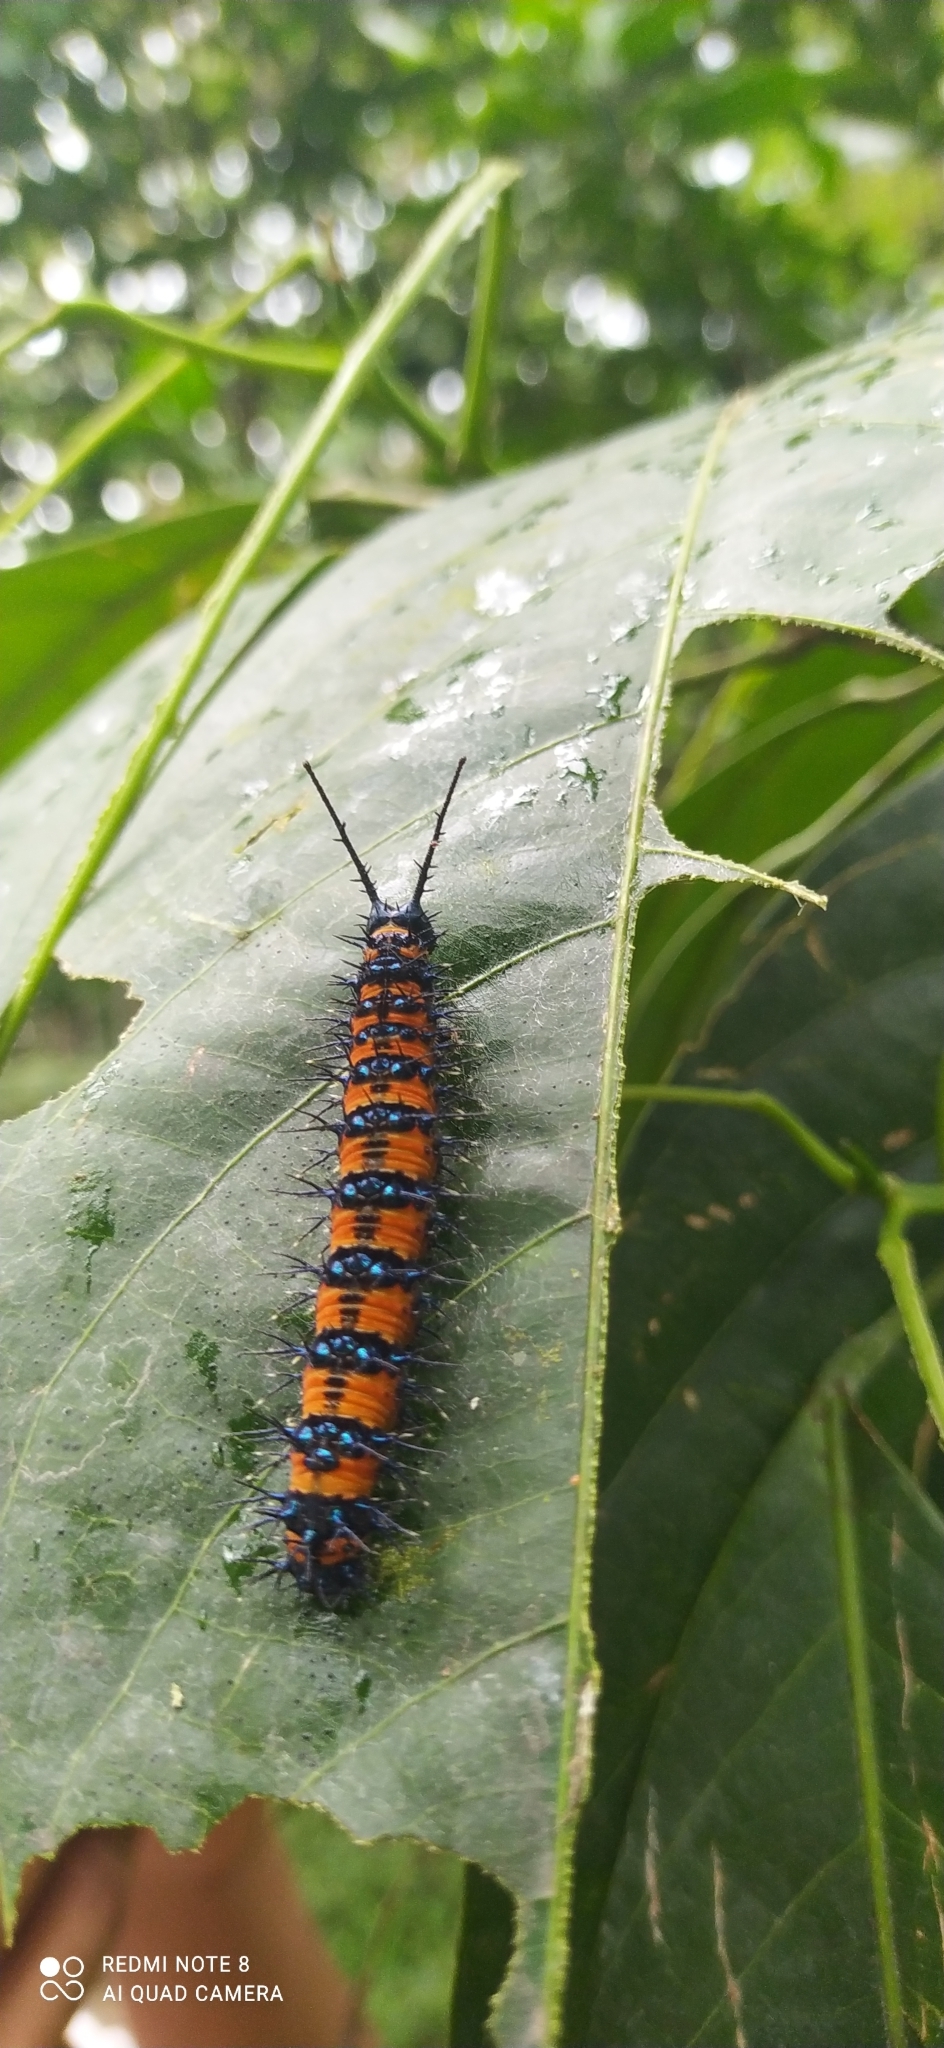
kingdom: Animalia
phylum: Arthropoda
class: Insecta
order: Lepidoptera
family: Nymphalidae
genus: Panacea
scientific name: Panacea prola
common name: Red flasher
